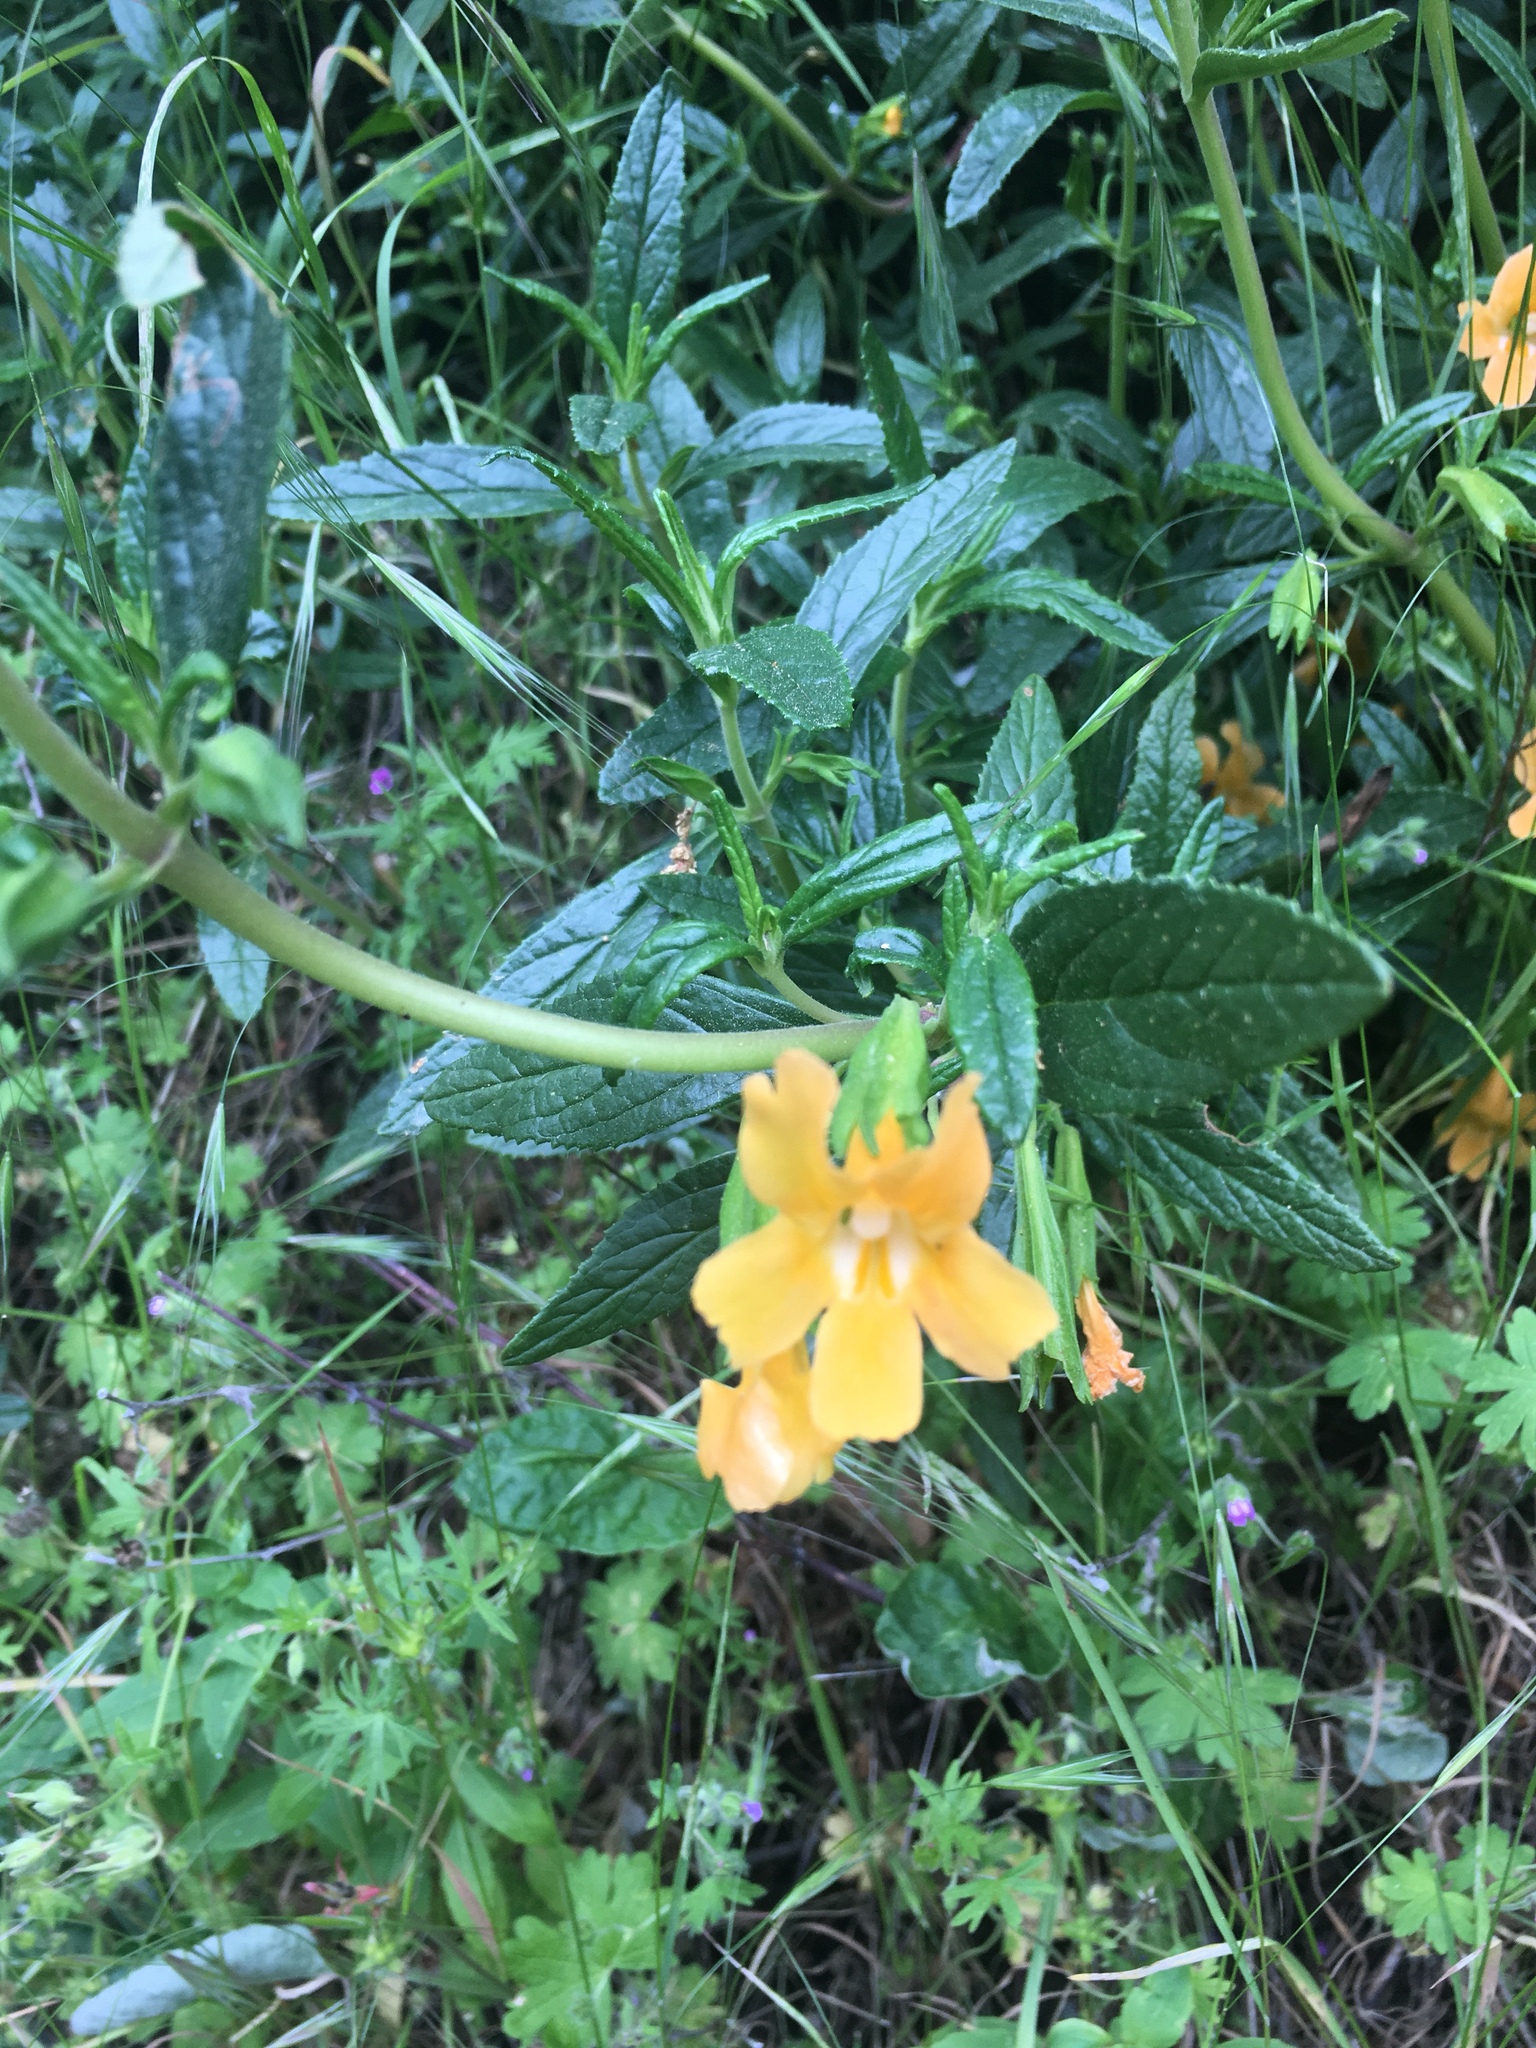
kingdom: Plantae
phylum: Tracheophyta
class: Magnoliopsida
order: Lamiales
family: Phrymaceae
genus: Diplacus
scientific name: Diplacus aurantiacus
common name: Bush monkey-flower
